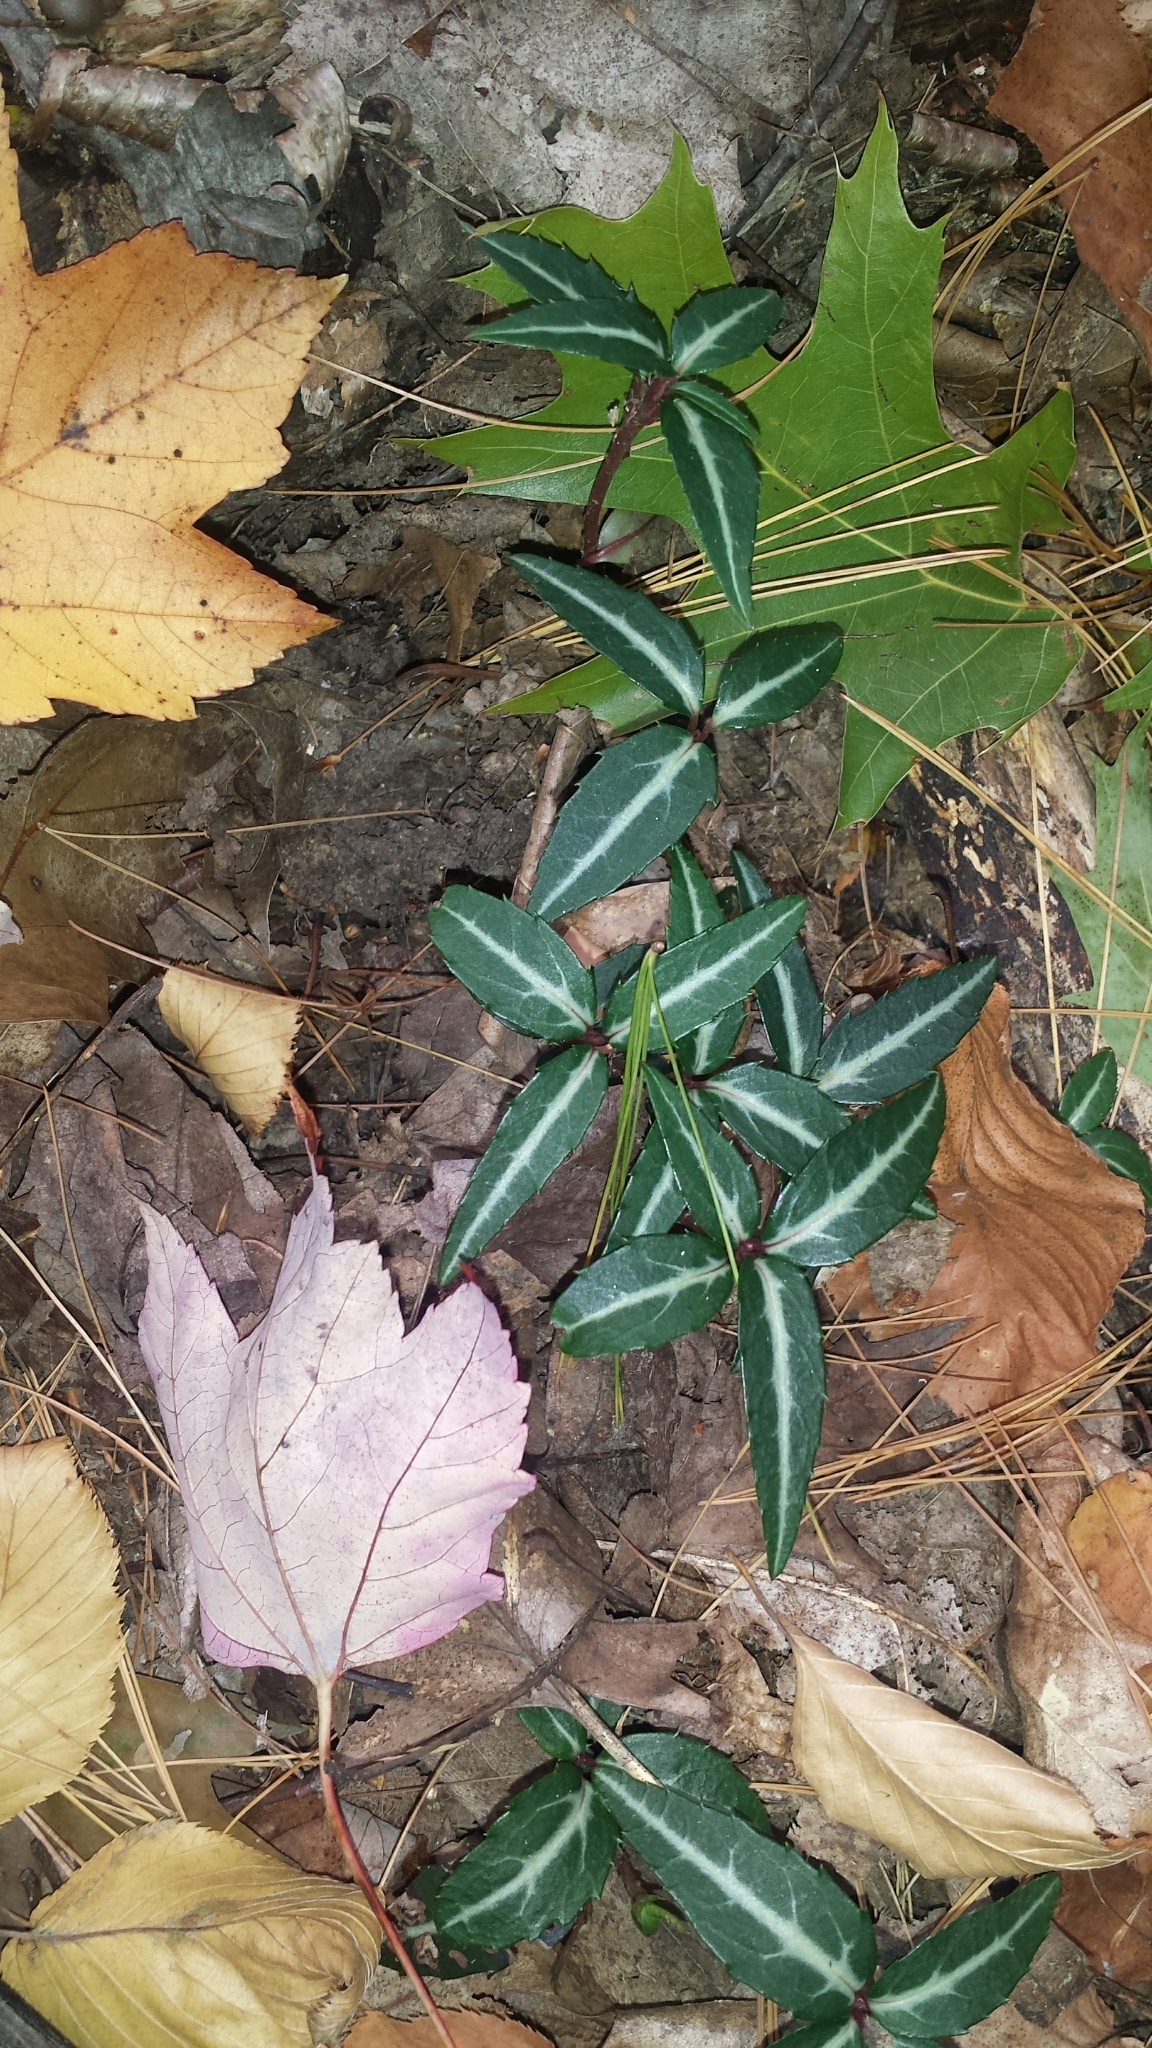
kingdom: Plantae
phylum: Tracheophyta
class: Magnoliopsida
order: Ericales
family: Ericaceae
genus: Chimaphila
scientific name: Chimaphila maculata
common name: Spotted pipsissewa
